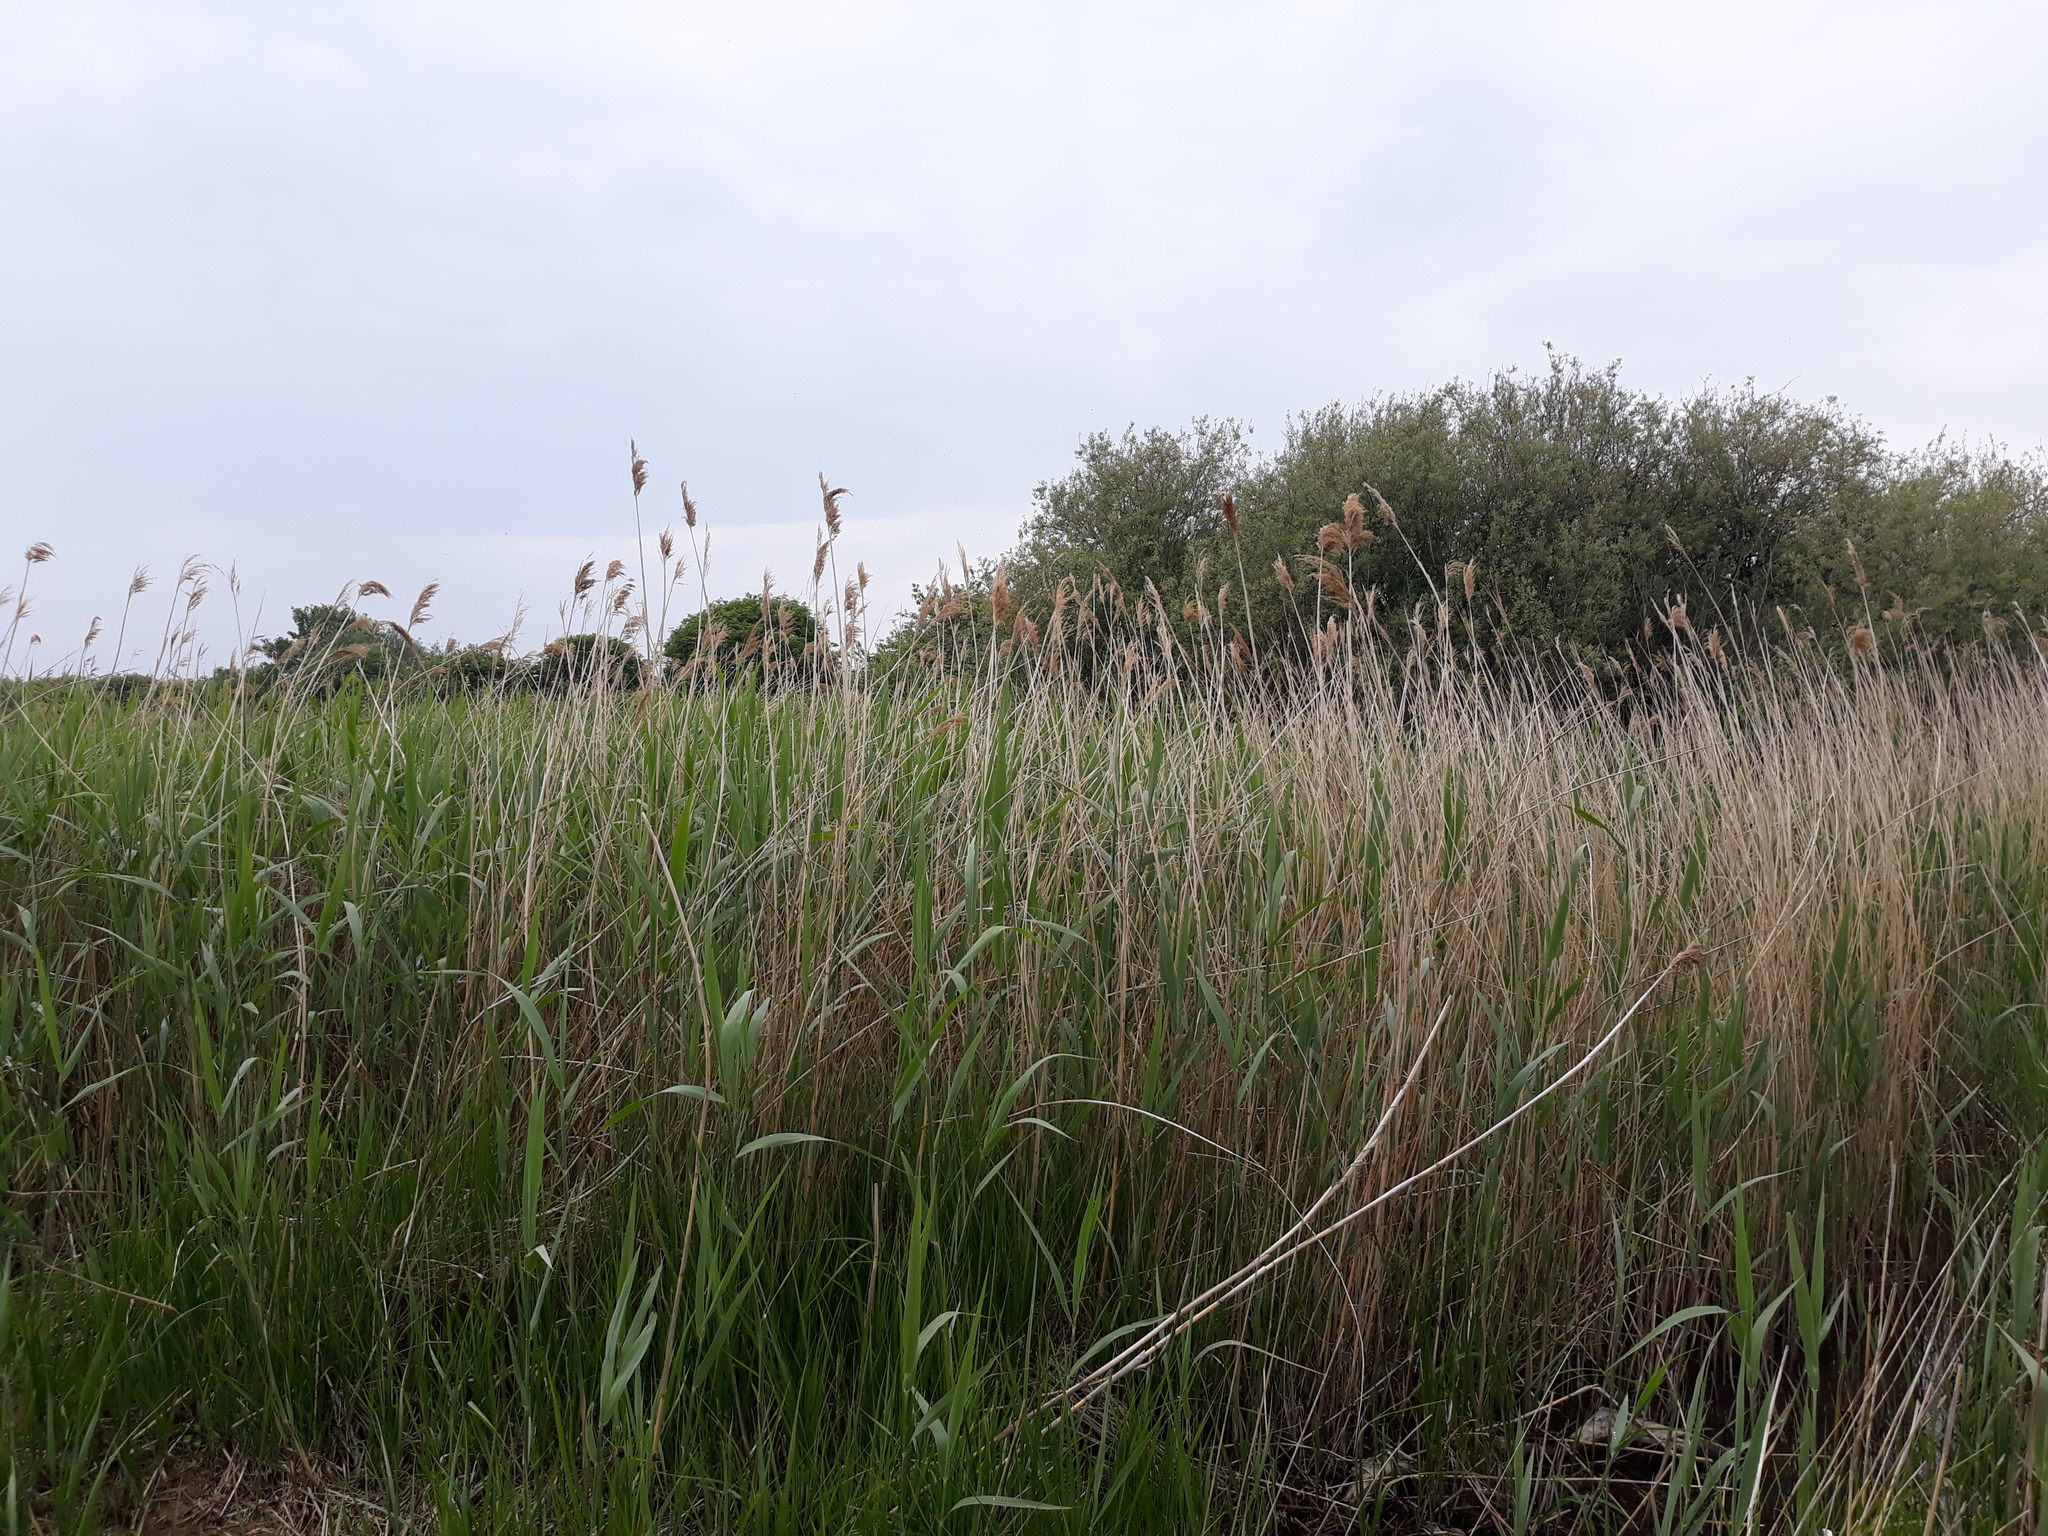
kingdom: Plantae
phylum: Tracheophyta
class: Liliopsida
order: Poales
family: Poaceae
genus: Phragmites
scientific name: Phragmites australis
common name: Common reed
